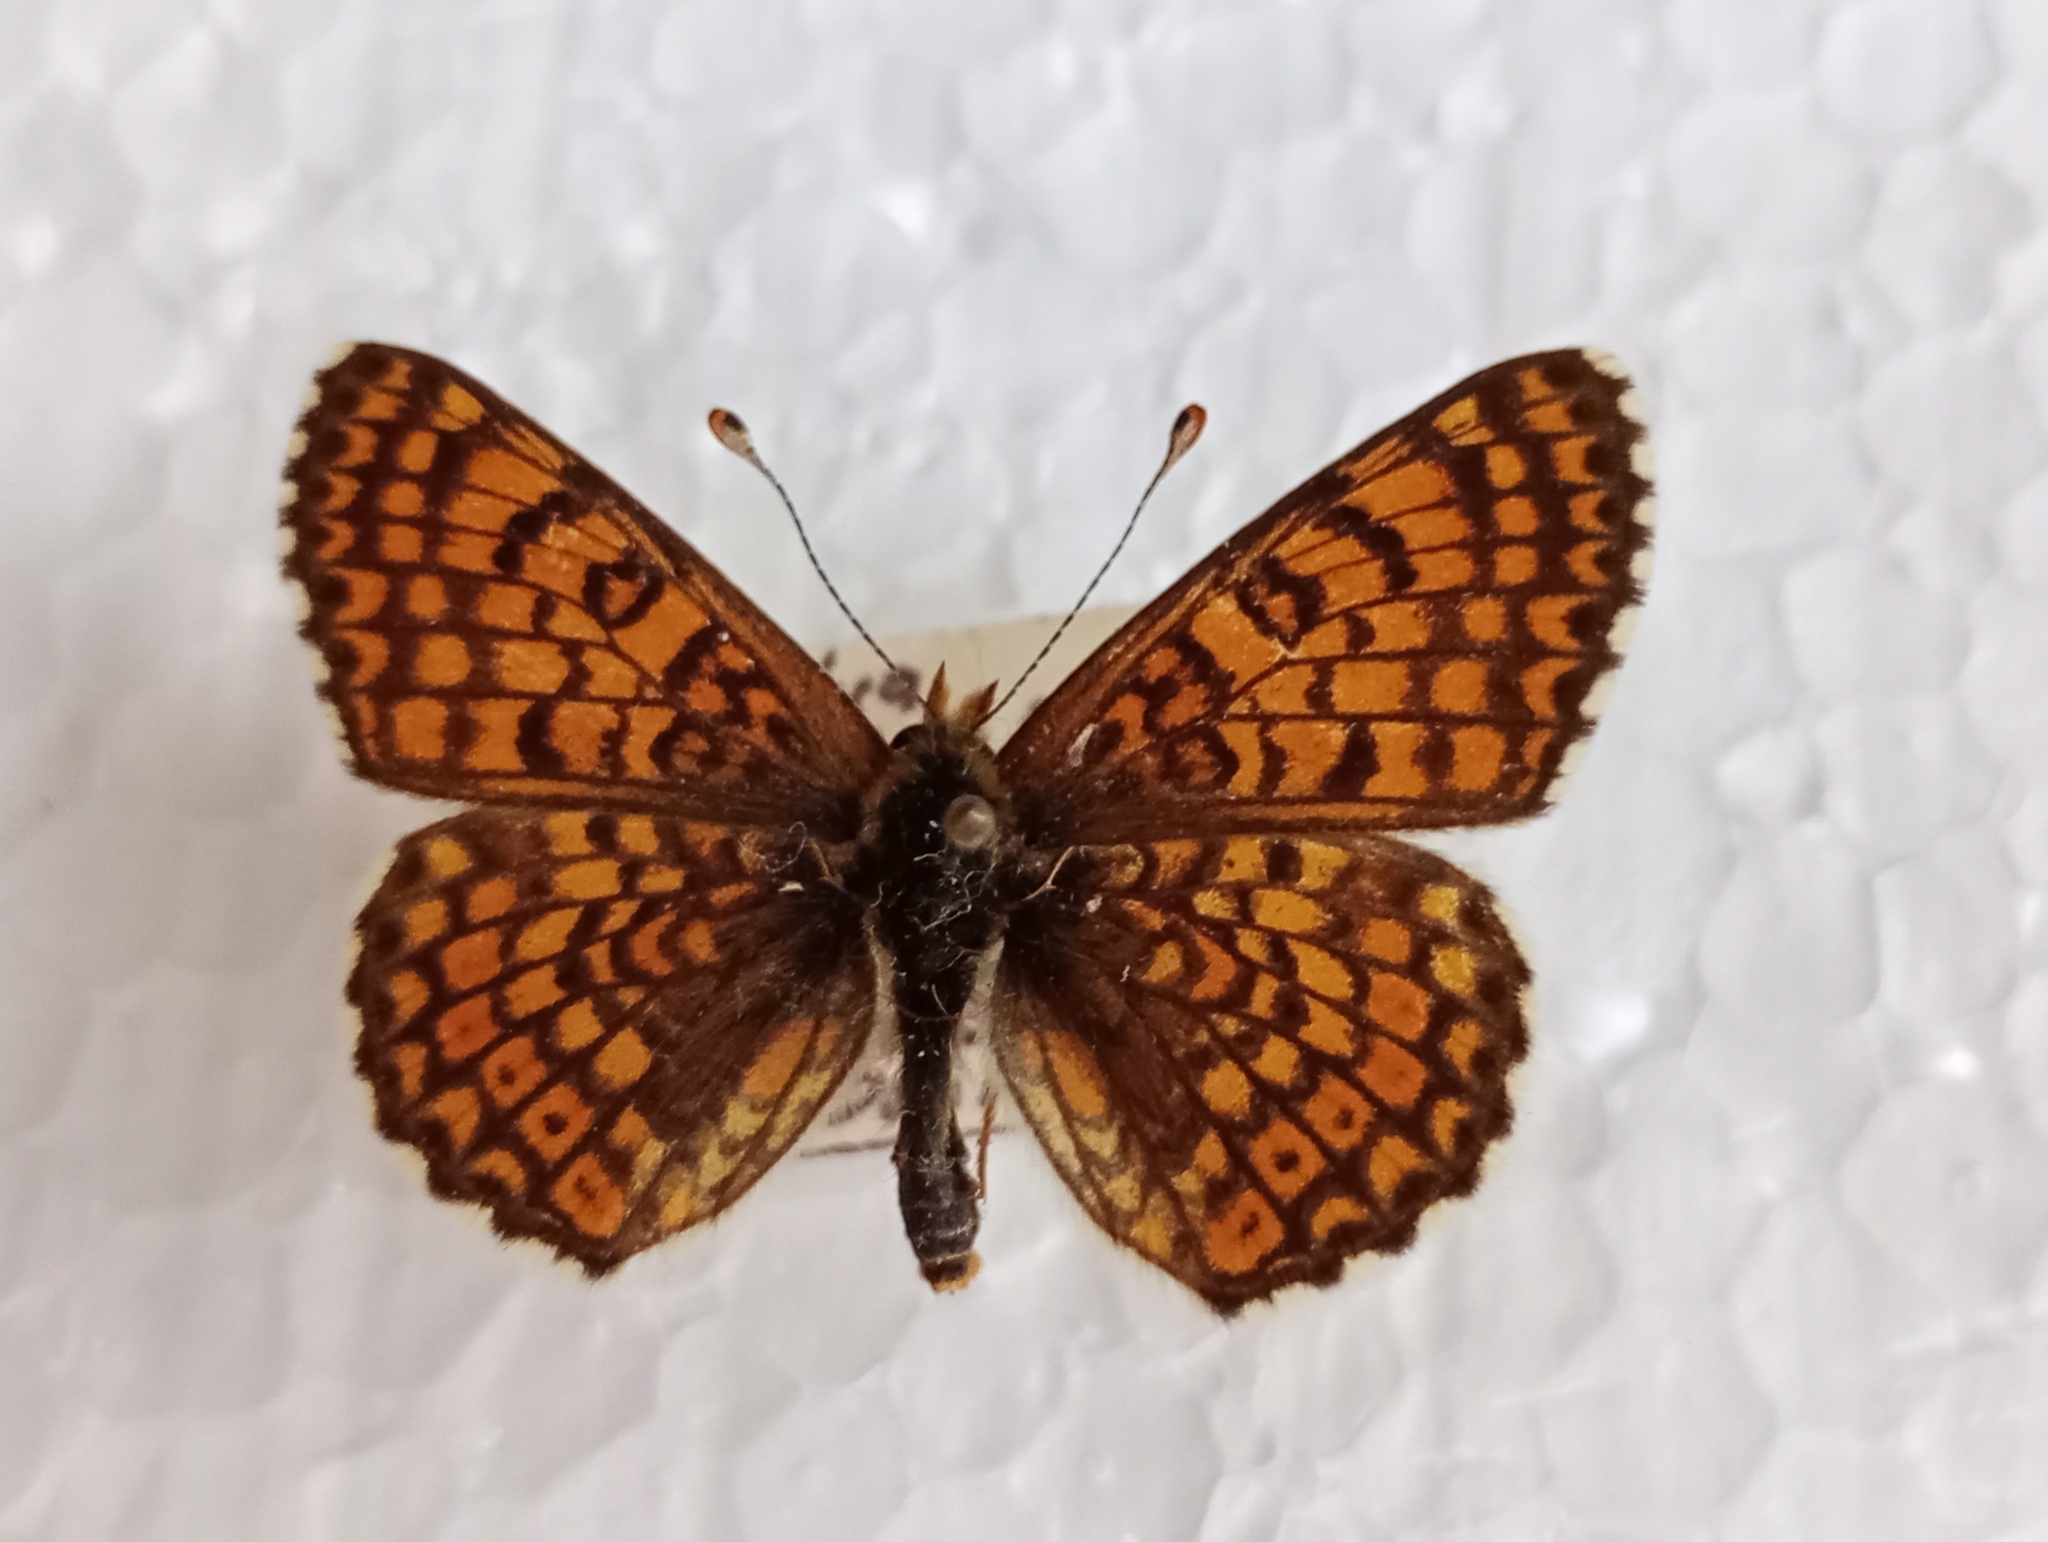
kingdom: Animalia
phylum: Arthropoda
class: Insecta
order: Lepidoptera
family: Nymphalidae
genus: Melitaea
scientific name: Melitaea cinxia
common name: Glanville fritillary
